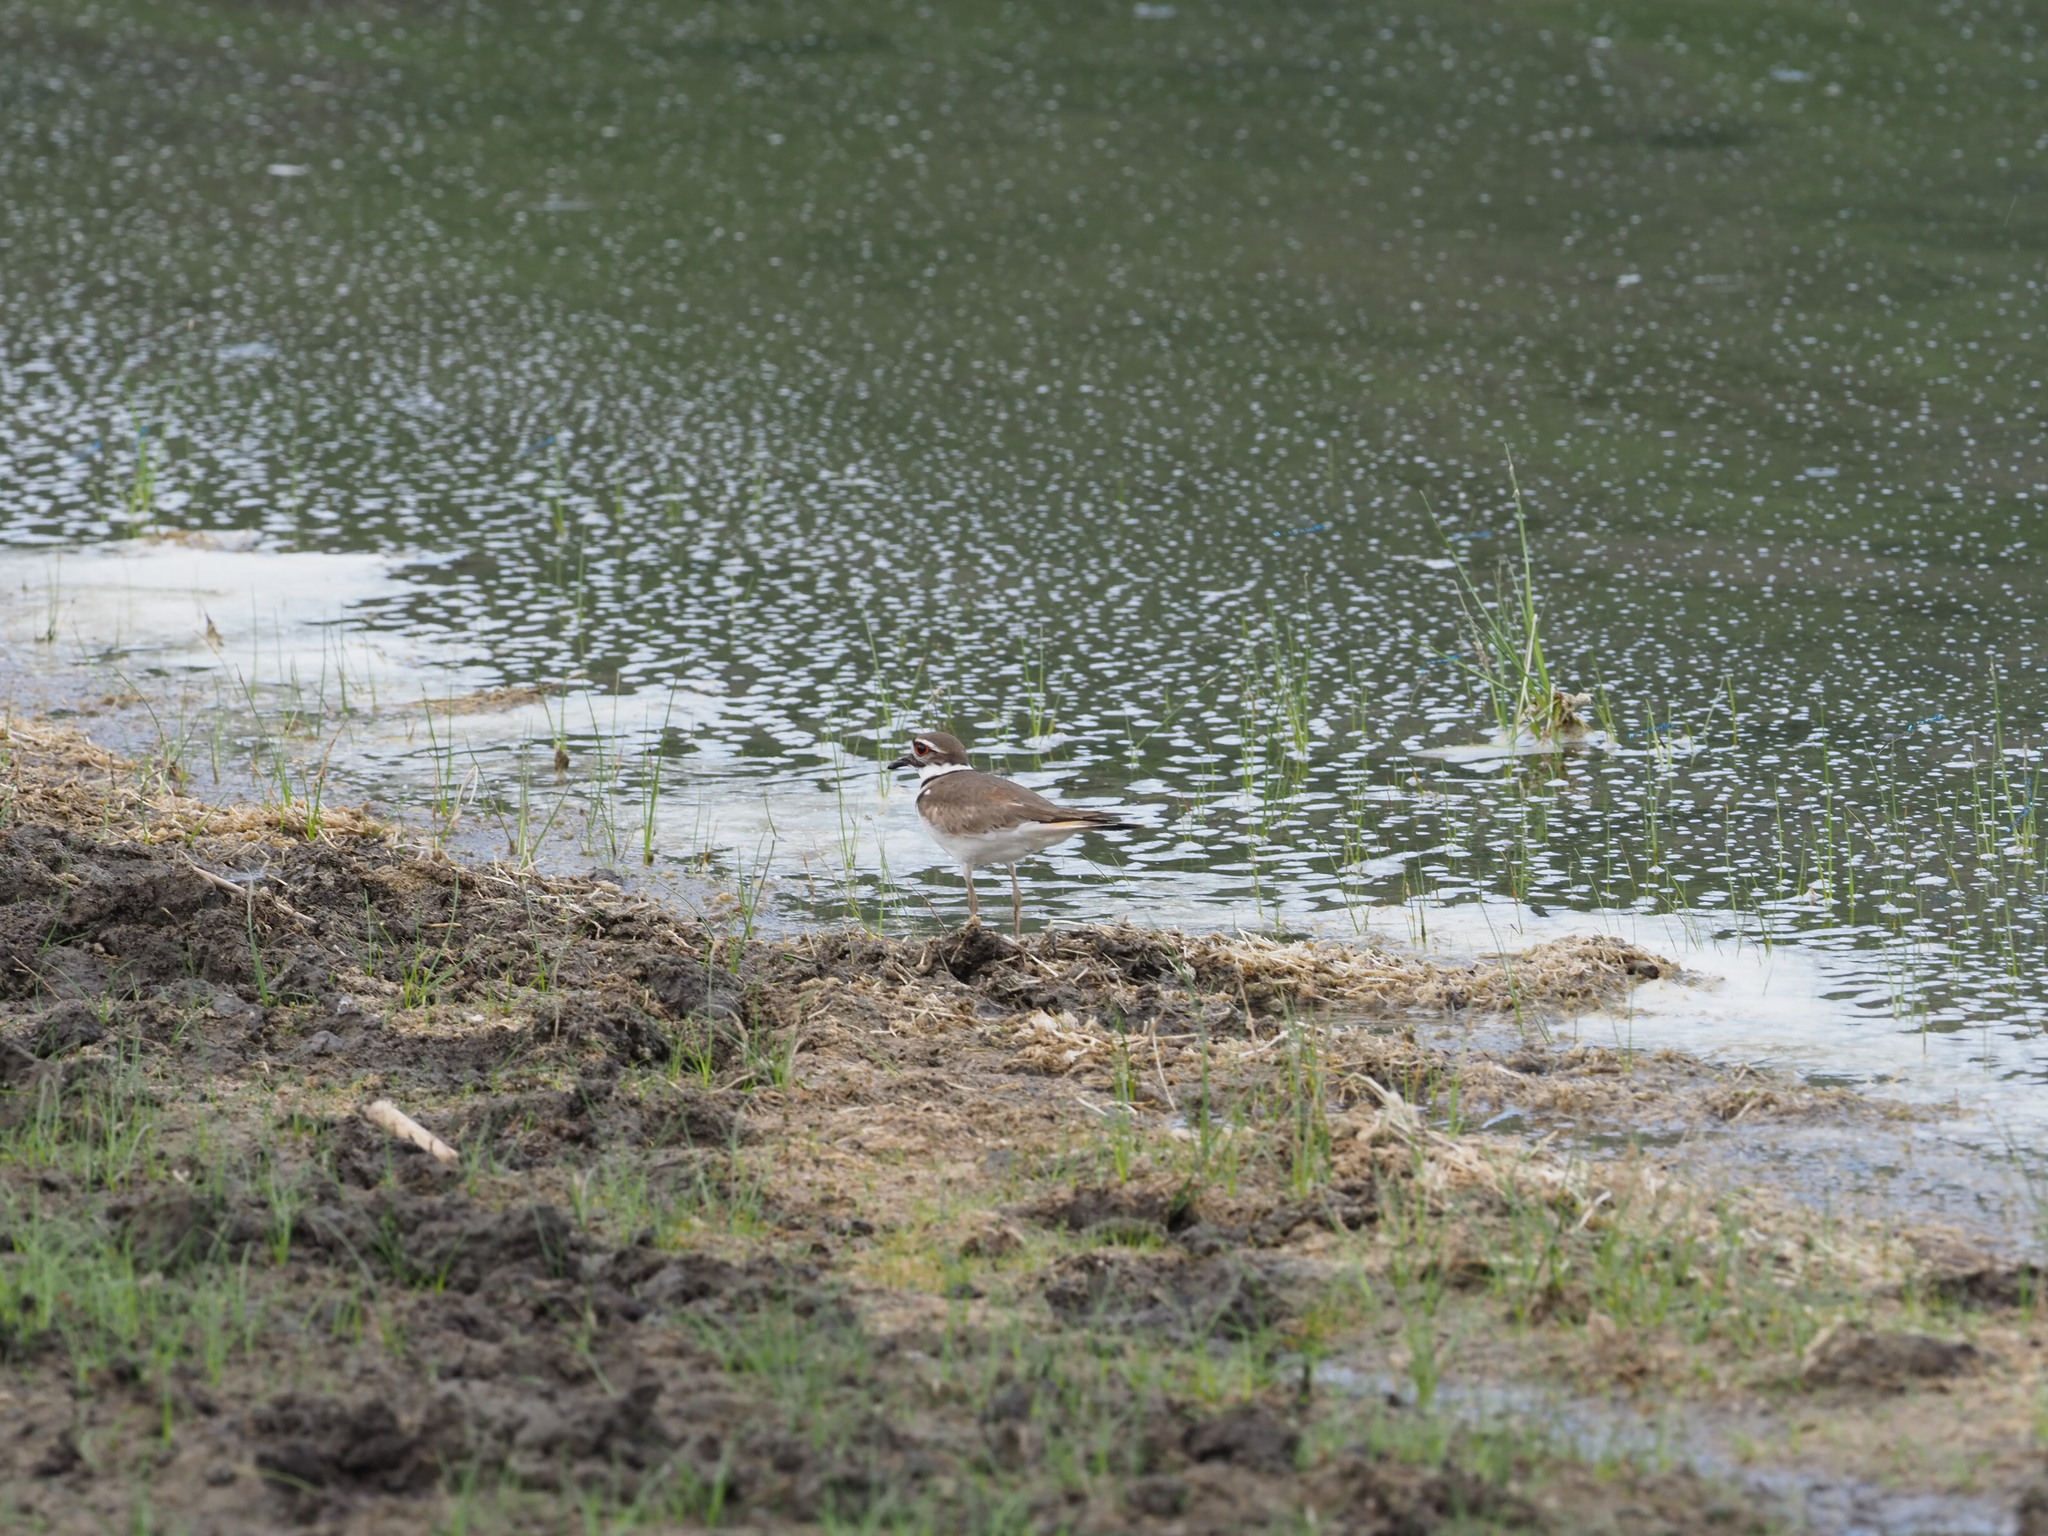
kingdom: Animalia
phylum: Chordata
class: Aves
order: Charadriiformes
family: Charadriidae
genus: Charadrius
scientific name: Charadrius vociferus
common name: Killdeer
